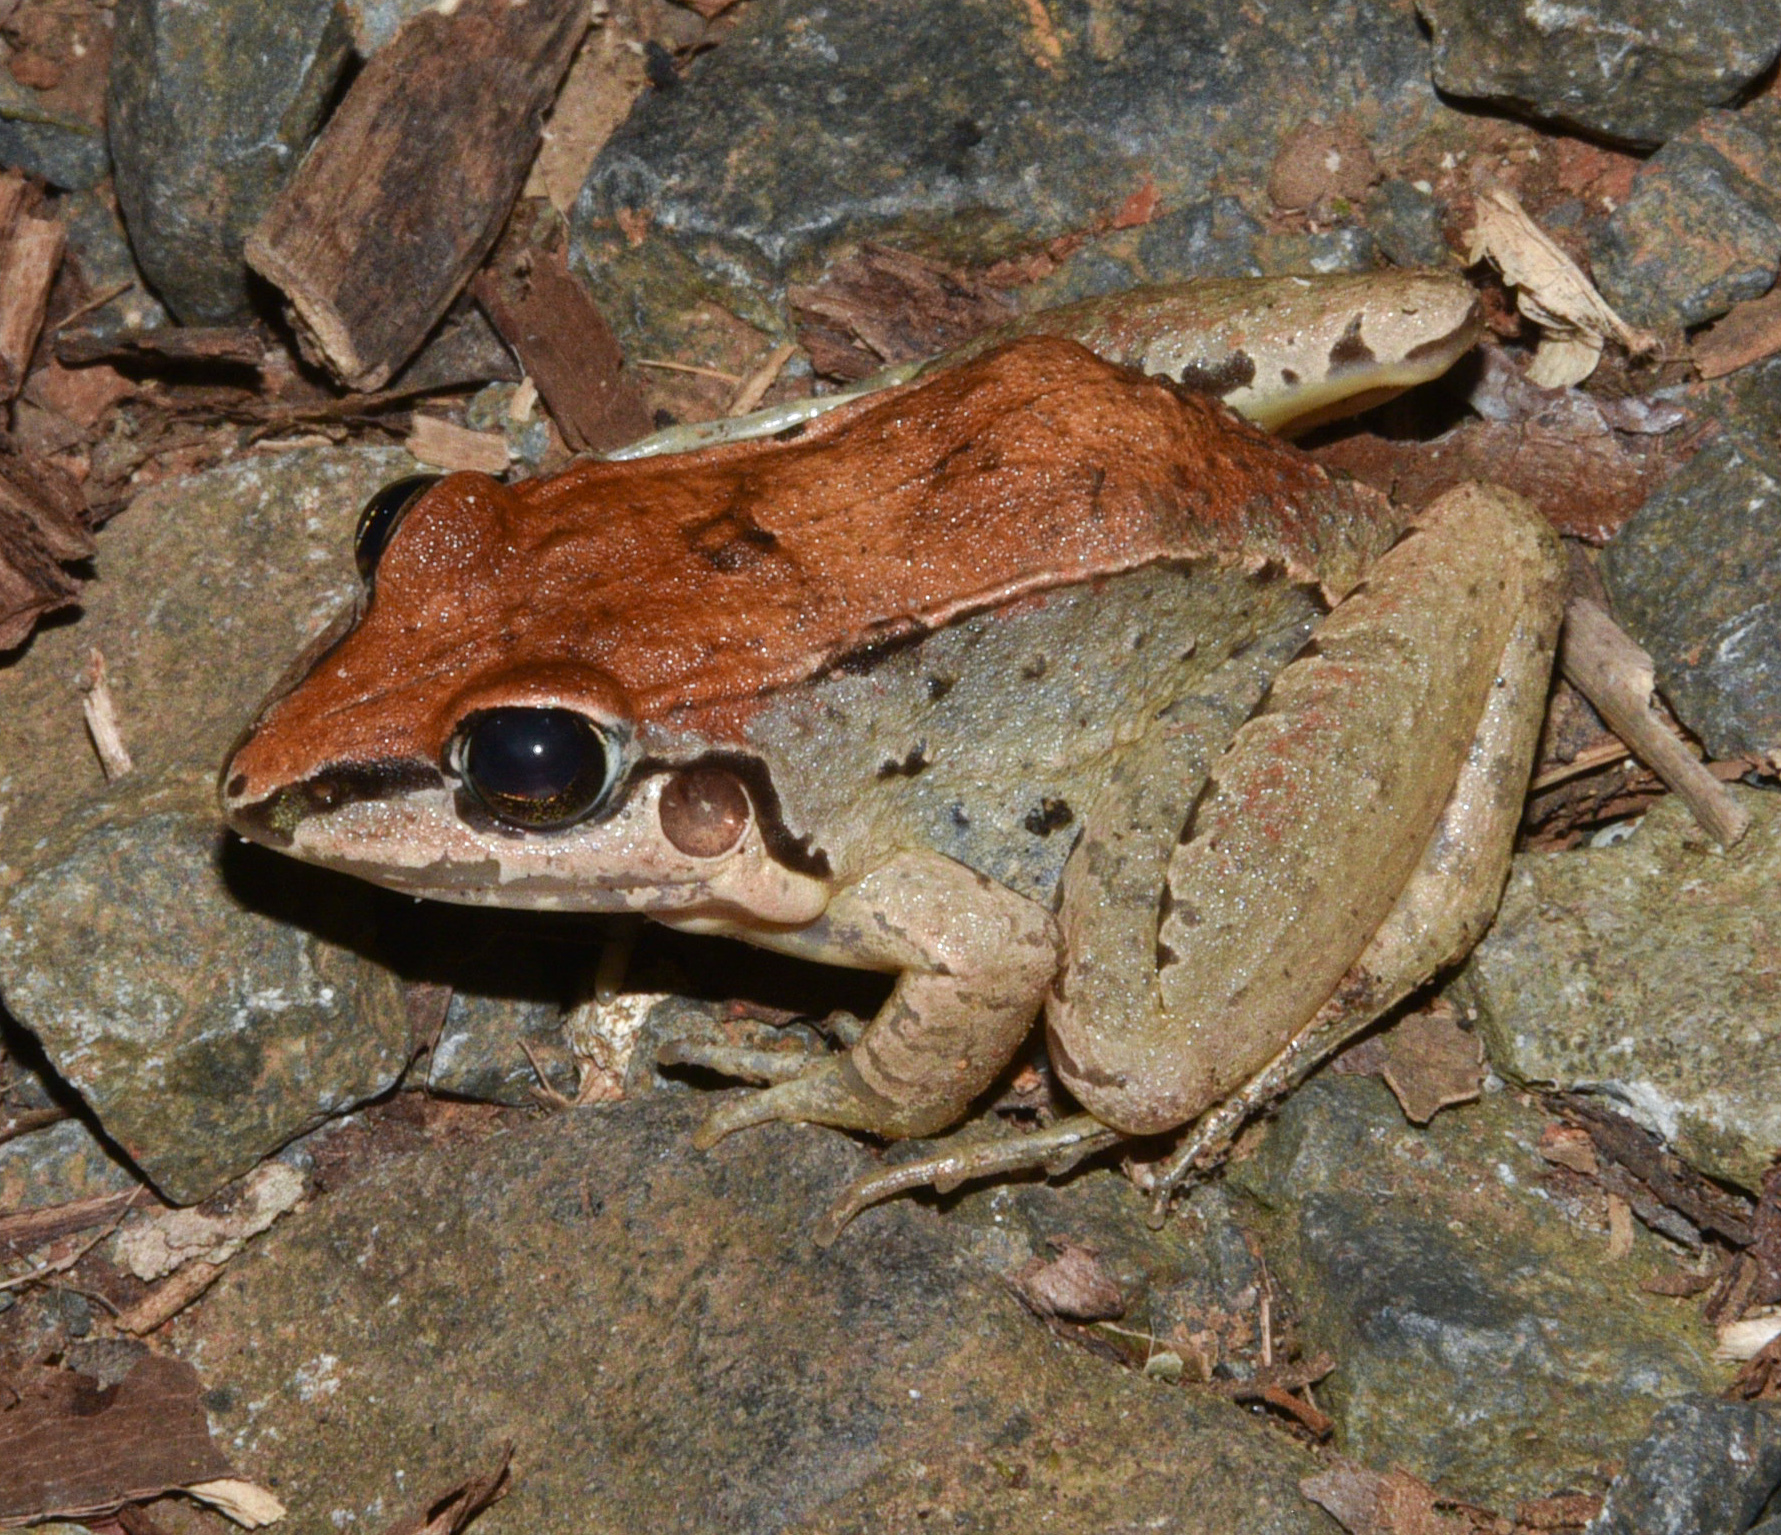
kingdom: Animalia
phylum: Chordata
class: Amphibia
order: Anura
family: Leptodactylidae
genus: Leptodactylus
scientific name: Leptodactylus savagei
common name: Savage's thin-toed frog
